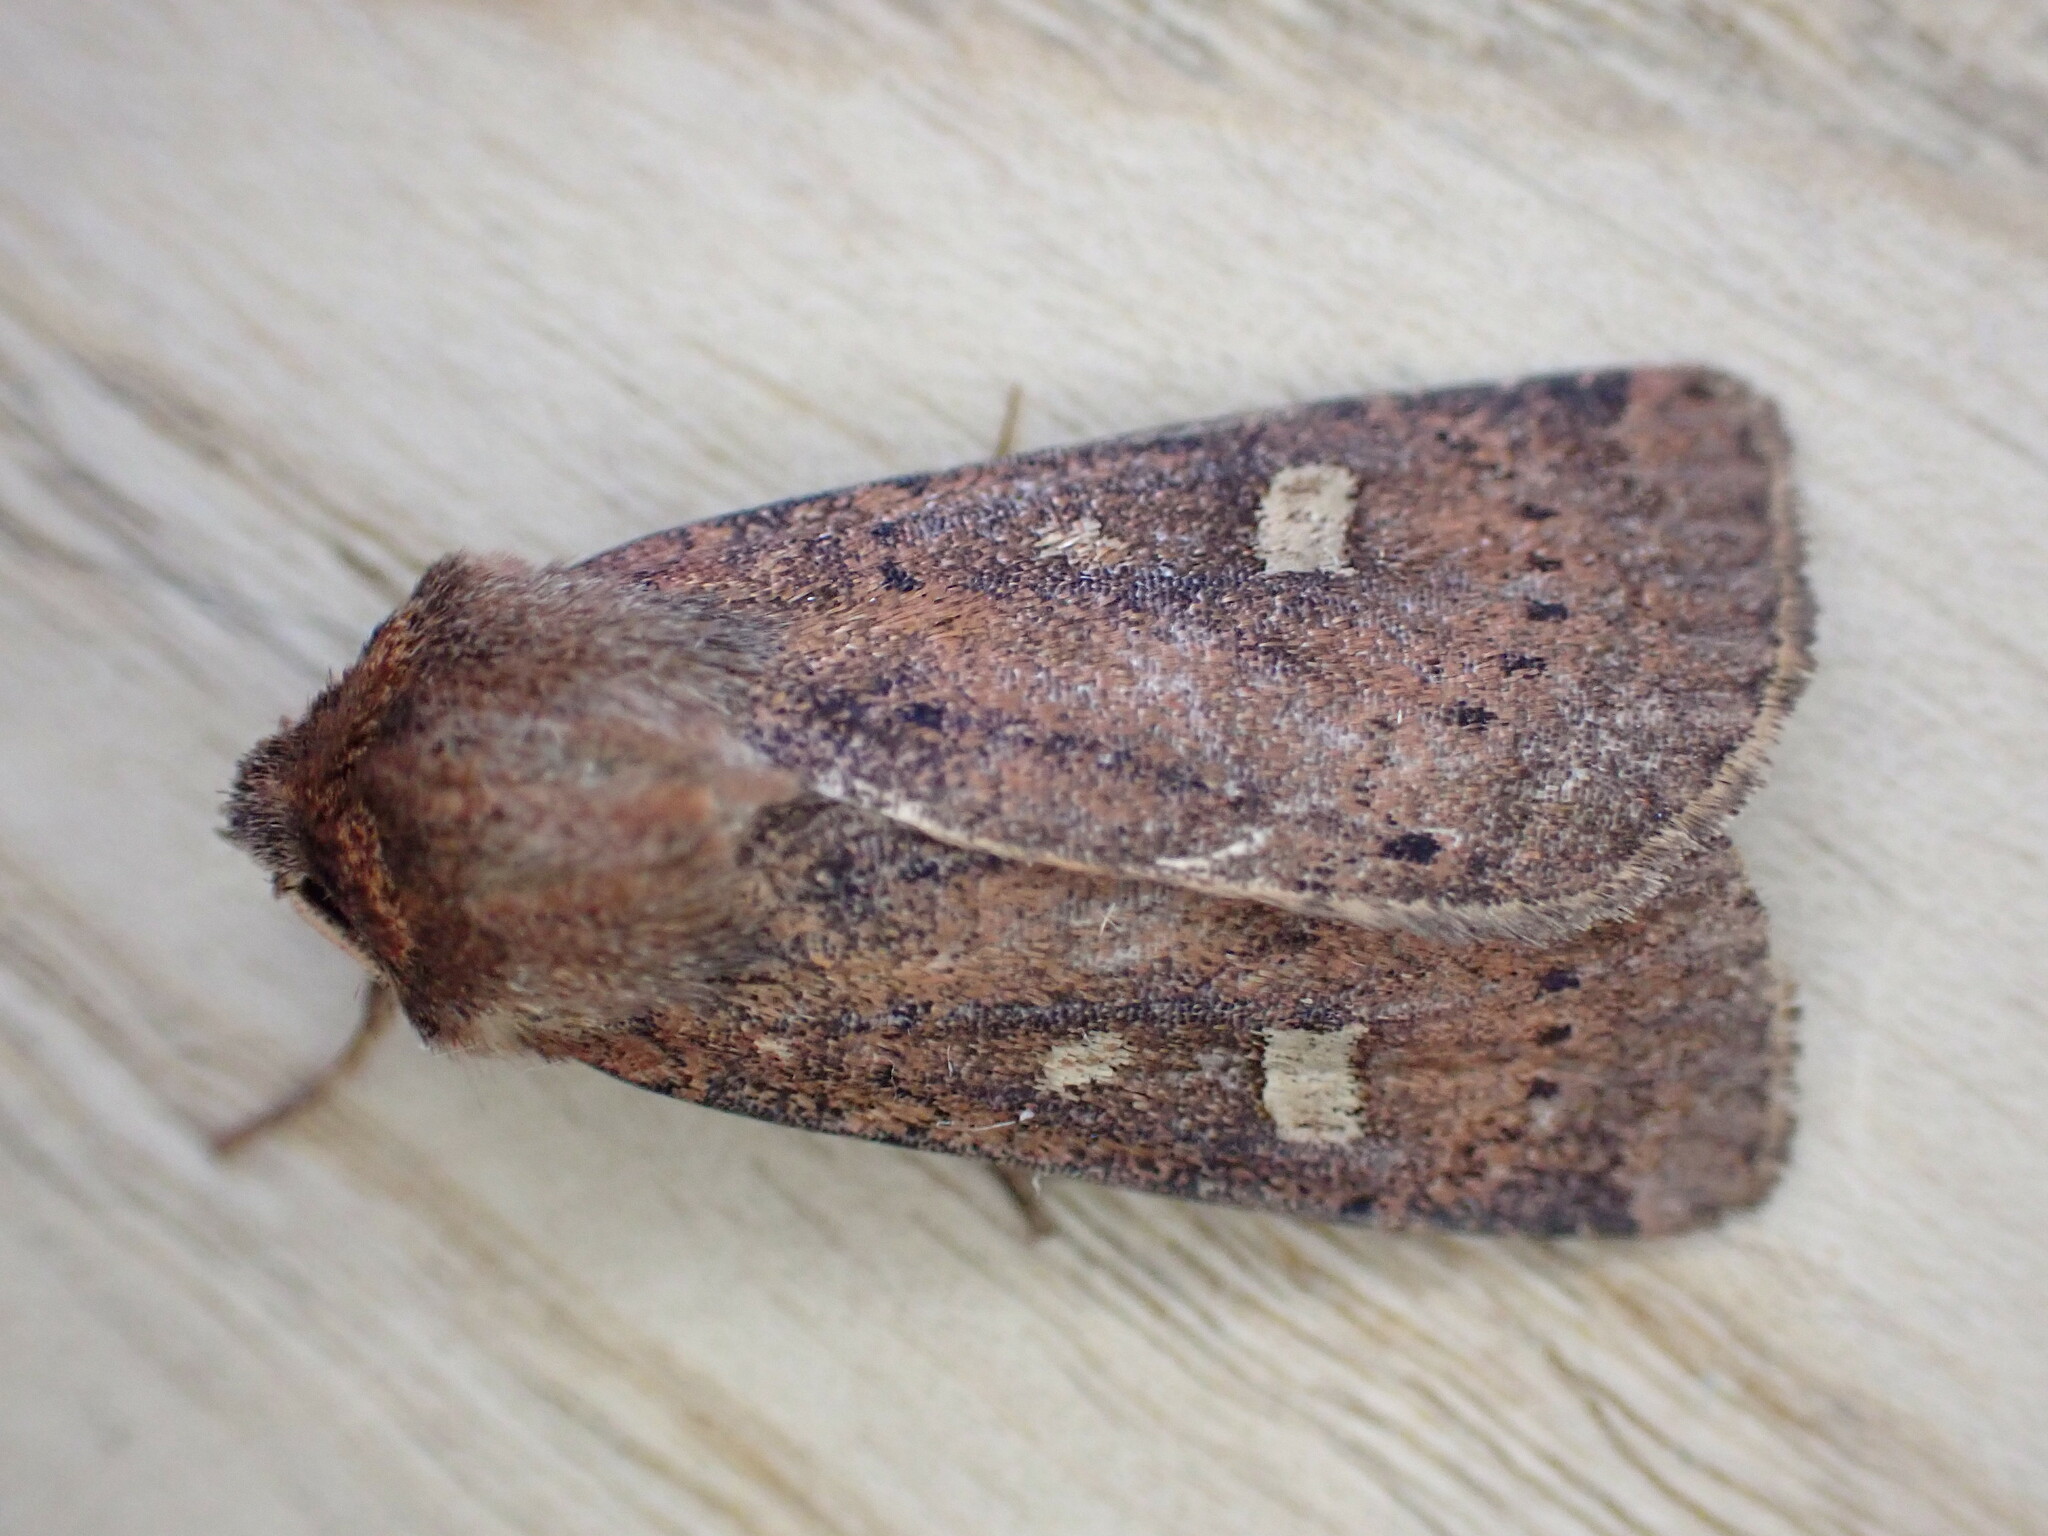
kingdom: Animalia
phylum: Arthropoda
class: Insecta
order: Lepidoptera
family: Noctuidae
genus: Xestia
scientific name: Xestia xanthographa
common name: Square-spot rustic
